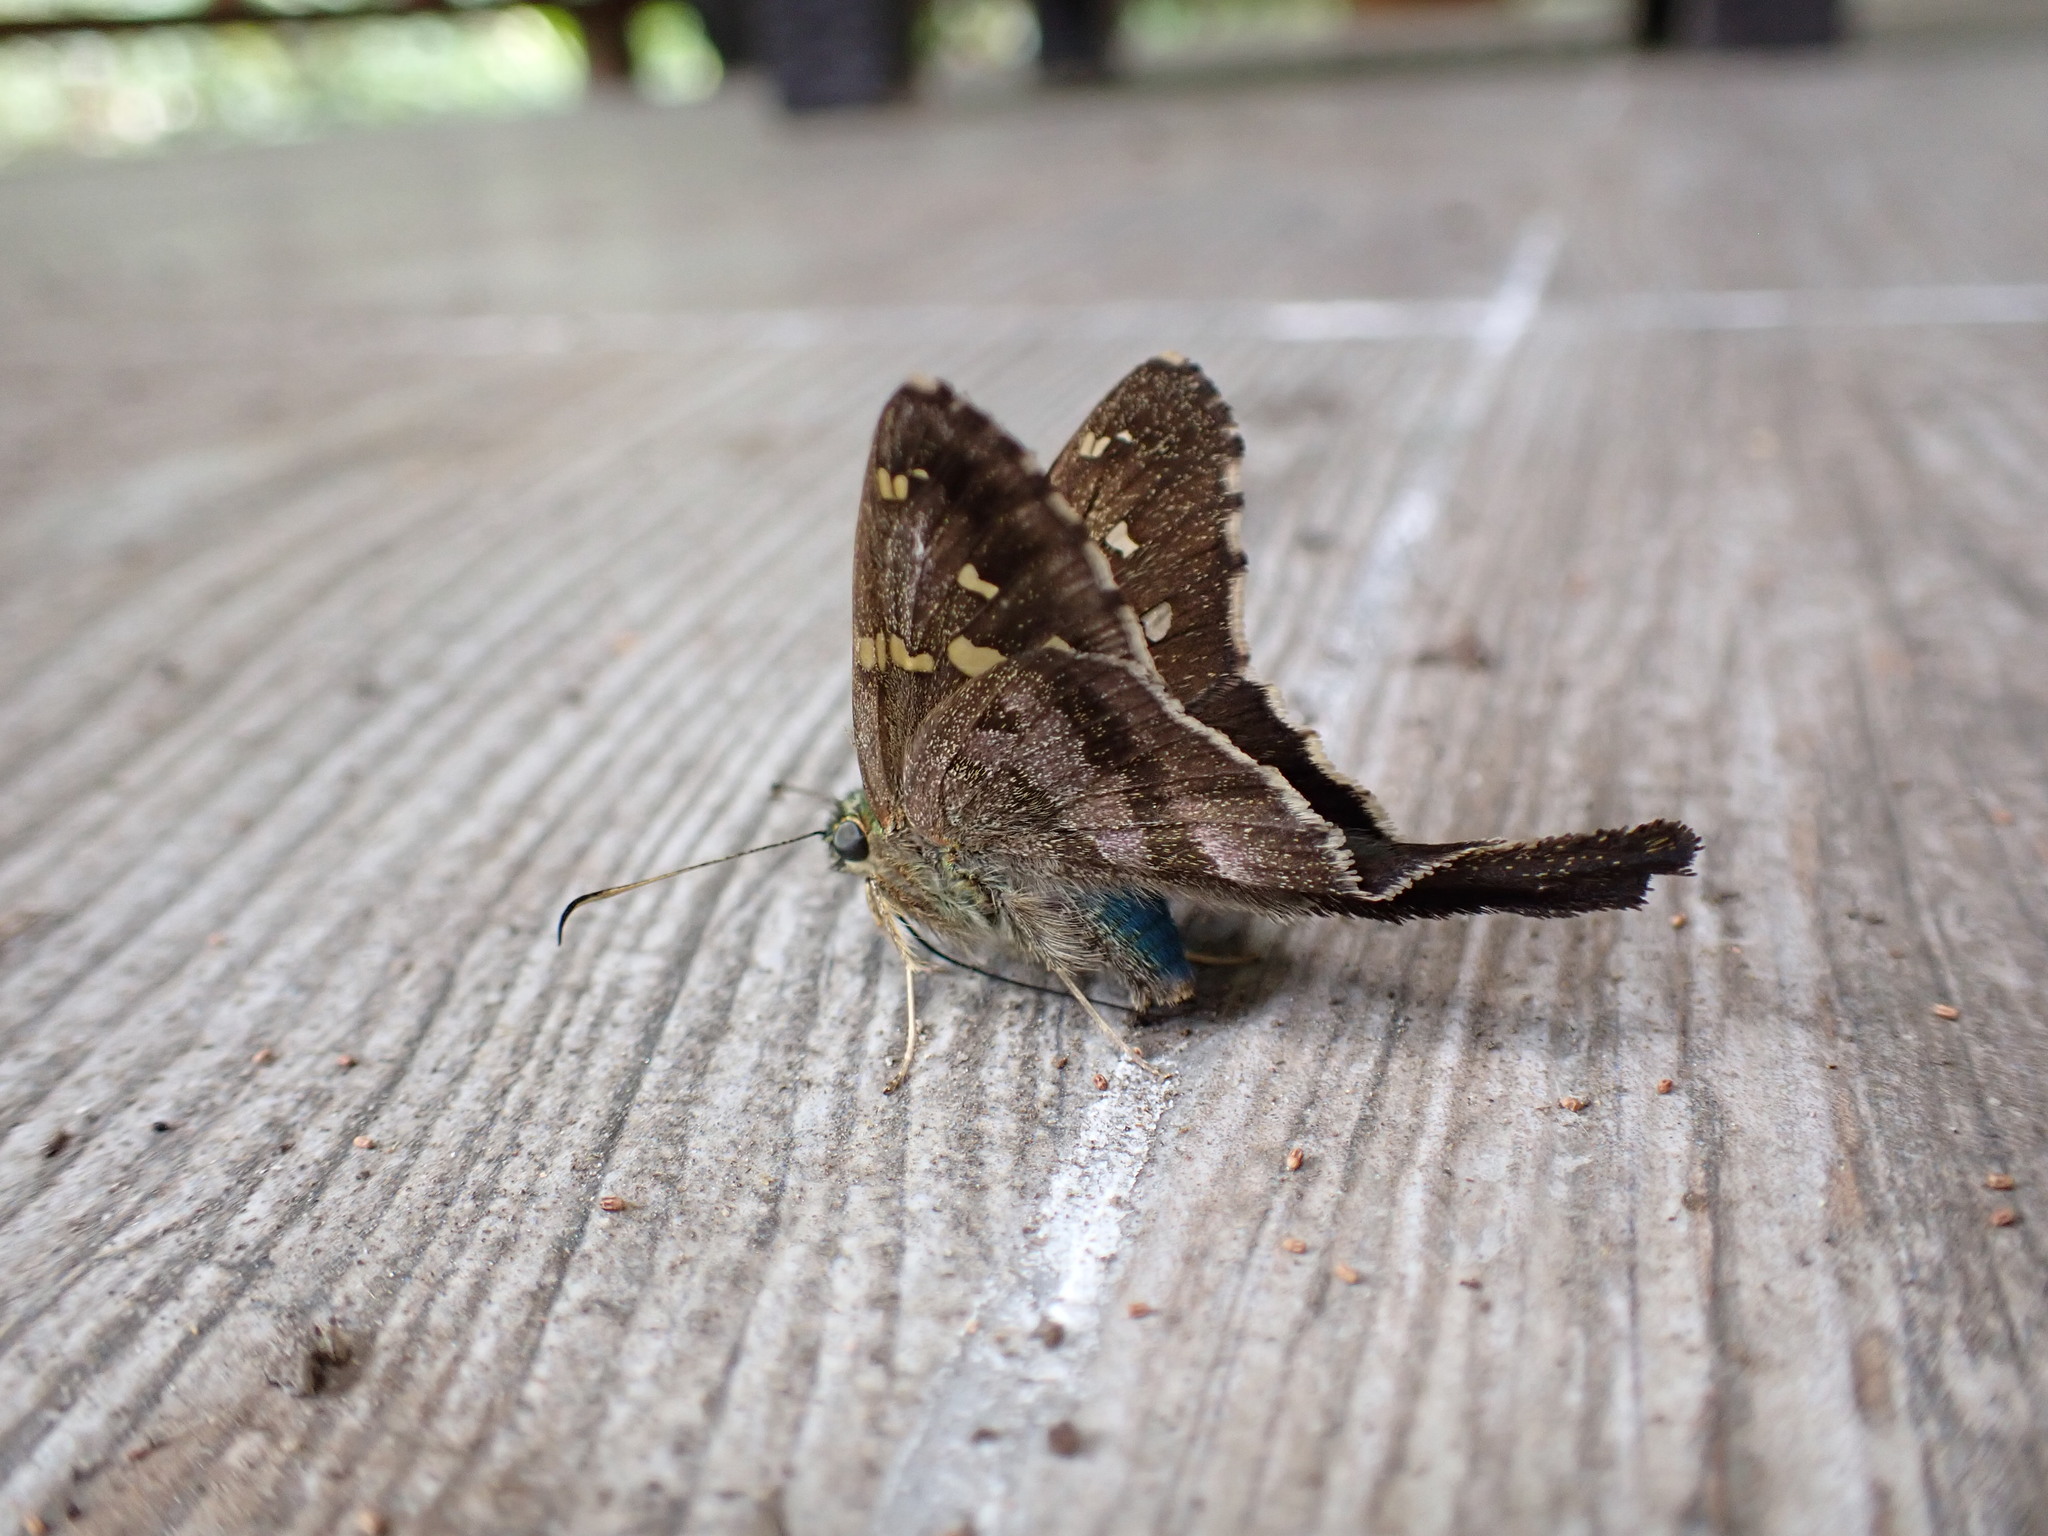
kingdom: Animalia
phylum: Arthropoda
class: Insecta
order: Lepidoptera
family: Hesperiidae
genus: Urbanus
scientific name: Urbanus proteus
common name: Long-tailed skipper
